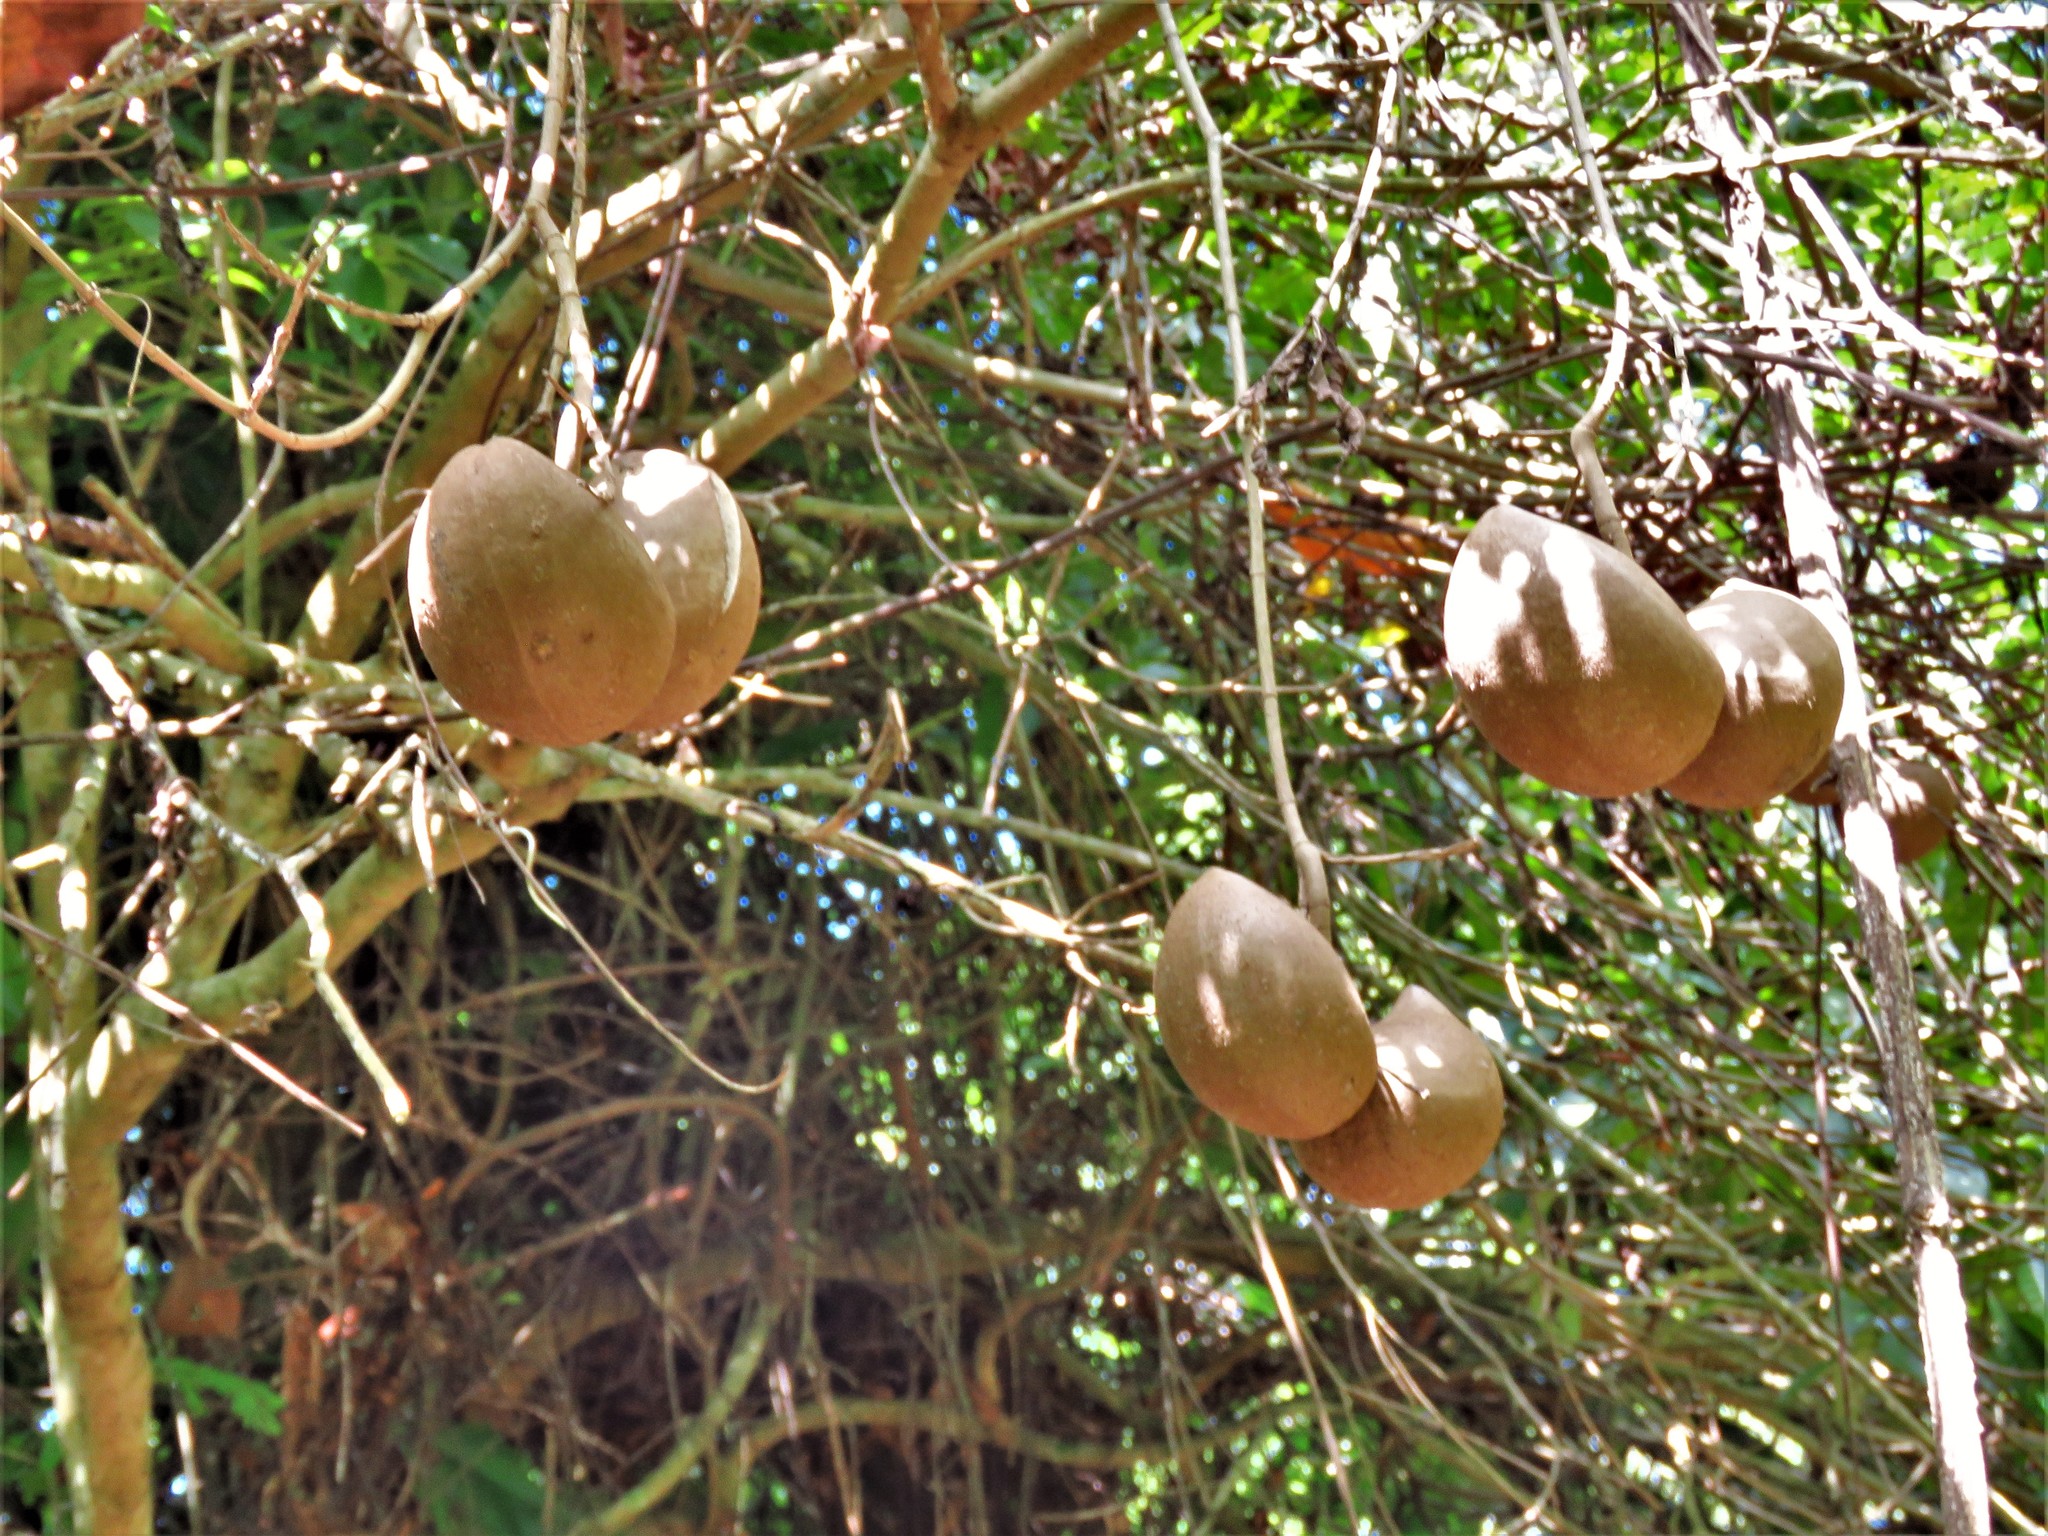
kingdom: Plantae
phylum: Tracheophyta
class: Magnoliopsida
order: Gentianales
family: Apocynaceae
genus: Tabernaemontana
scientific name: Tabernaemontana donnell-smithii
